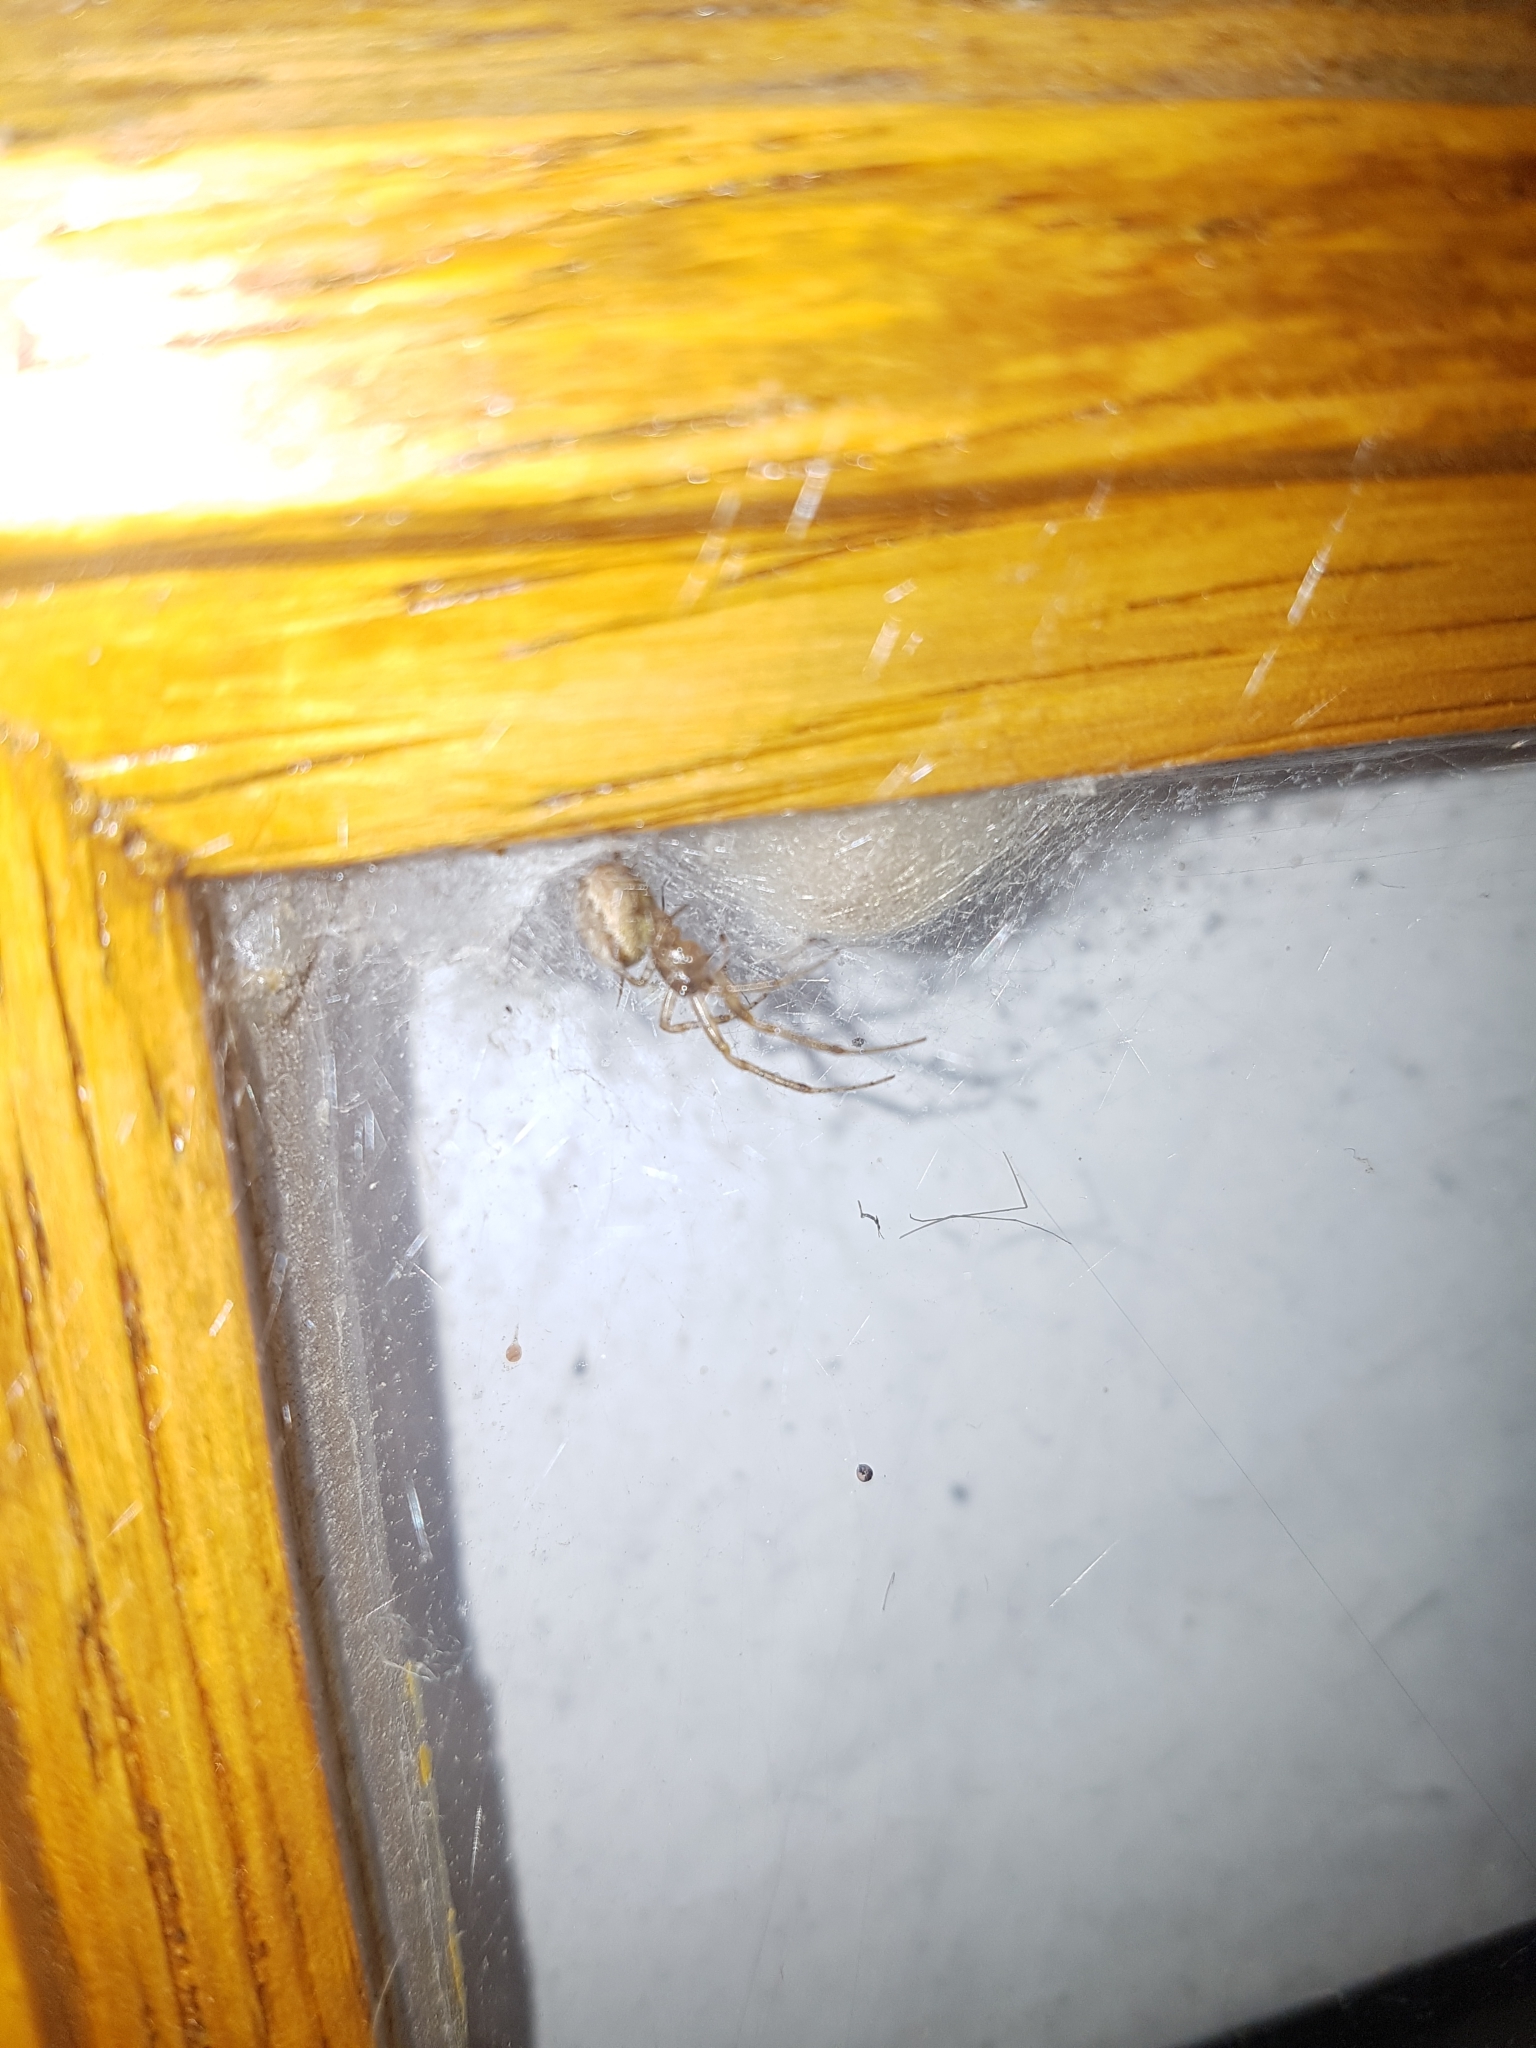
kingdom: Animalia
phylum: Arthropoda
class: Arachnida
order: Araneae
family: Araneidae
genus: Zygiella
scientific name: Zygiella x-notata
